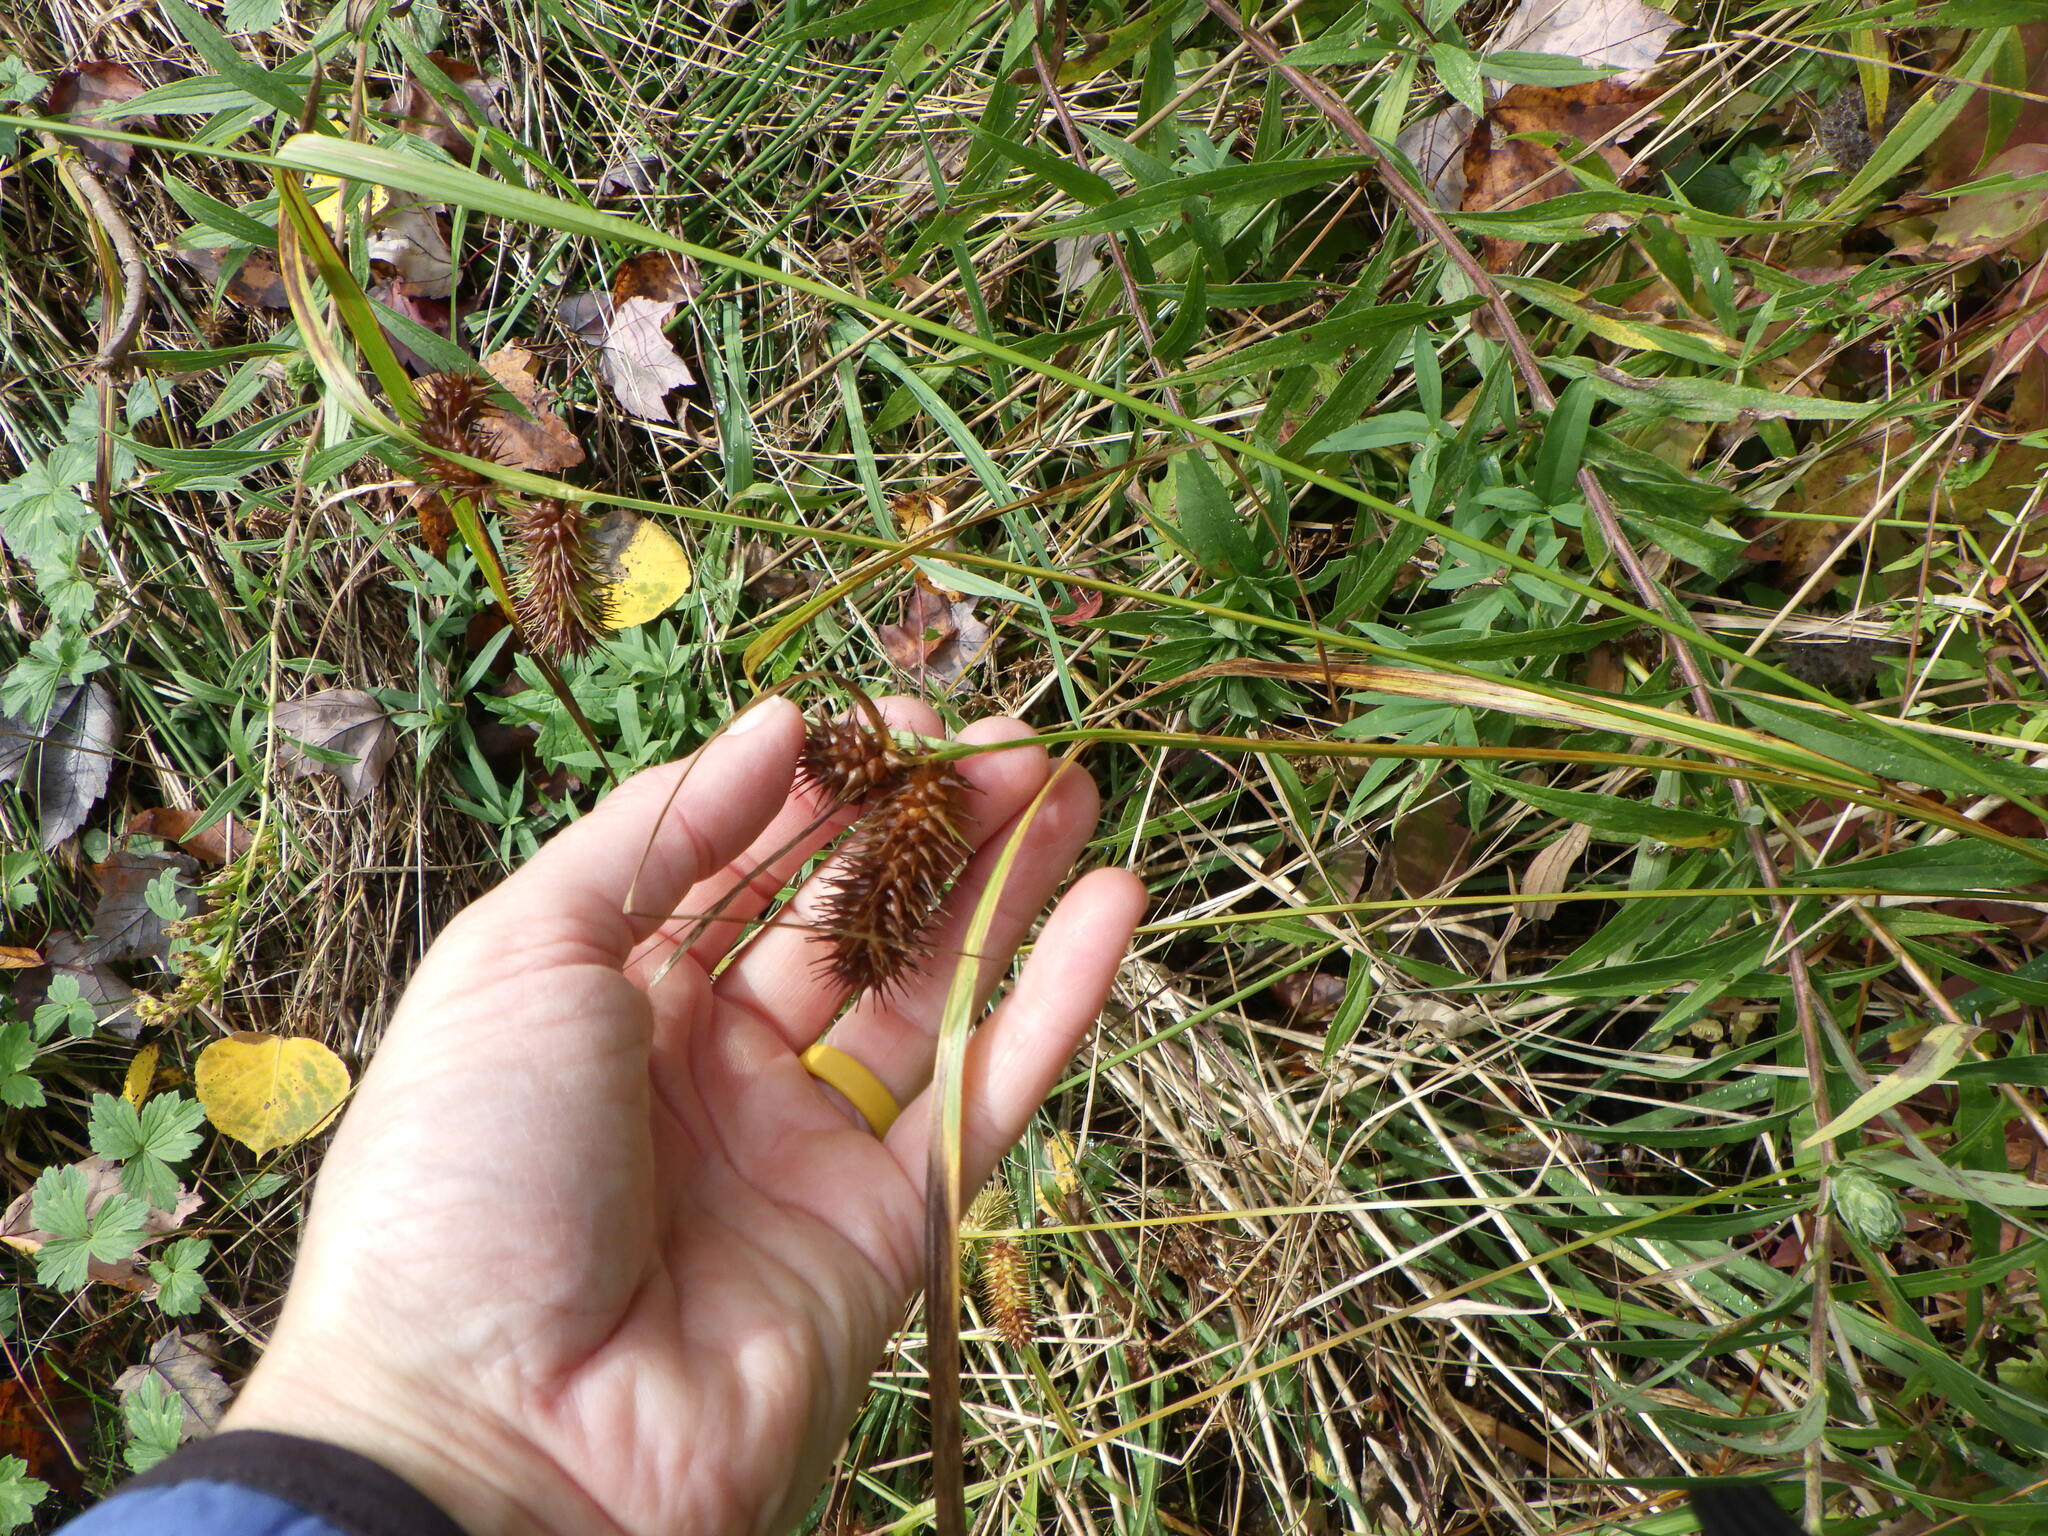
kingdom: Plantae
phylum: Tracheophyta
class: Liliopsida
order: Poales
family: Cyperaceae
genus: Carex
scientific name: Carex lurida
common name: Sallow sedge
